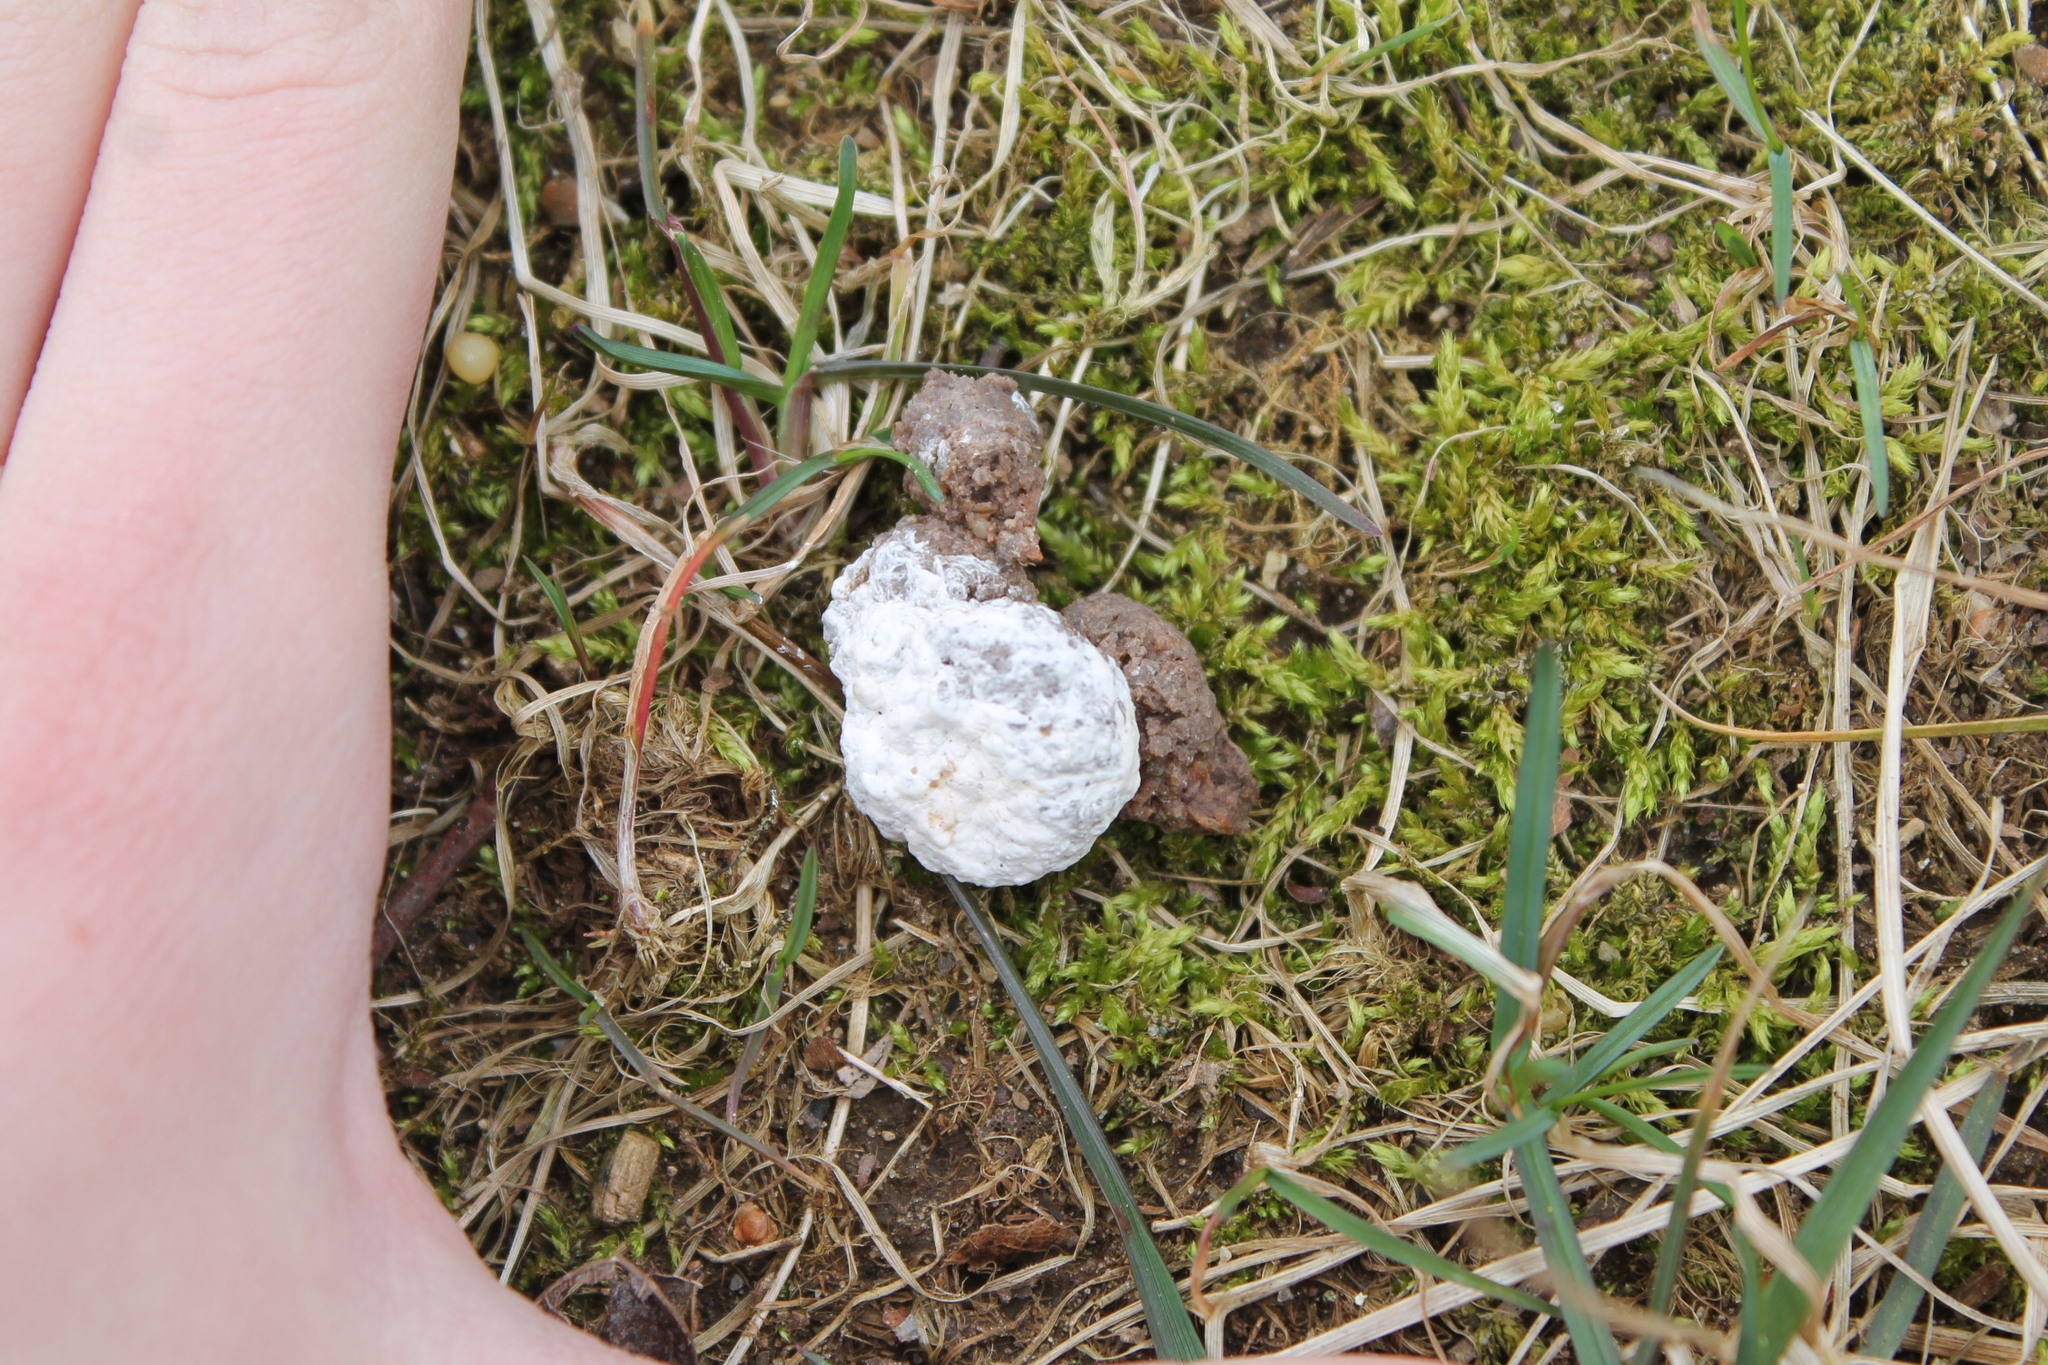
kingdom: Animalia
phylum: Chordata
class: Aves
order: Galliformes
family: Phasianidae
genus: Meleagris
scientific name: Meleagris gallopavo
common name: Wild turkey
